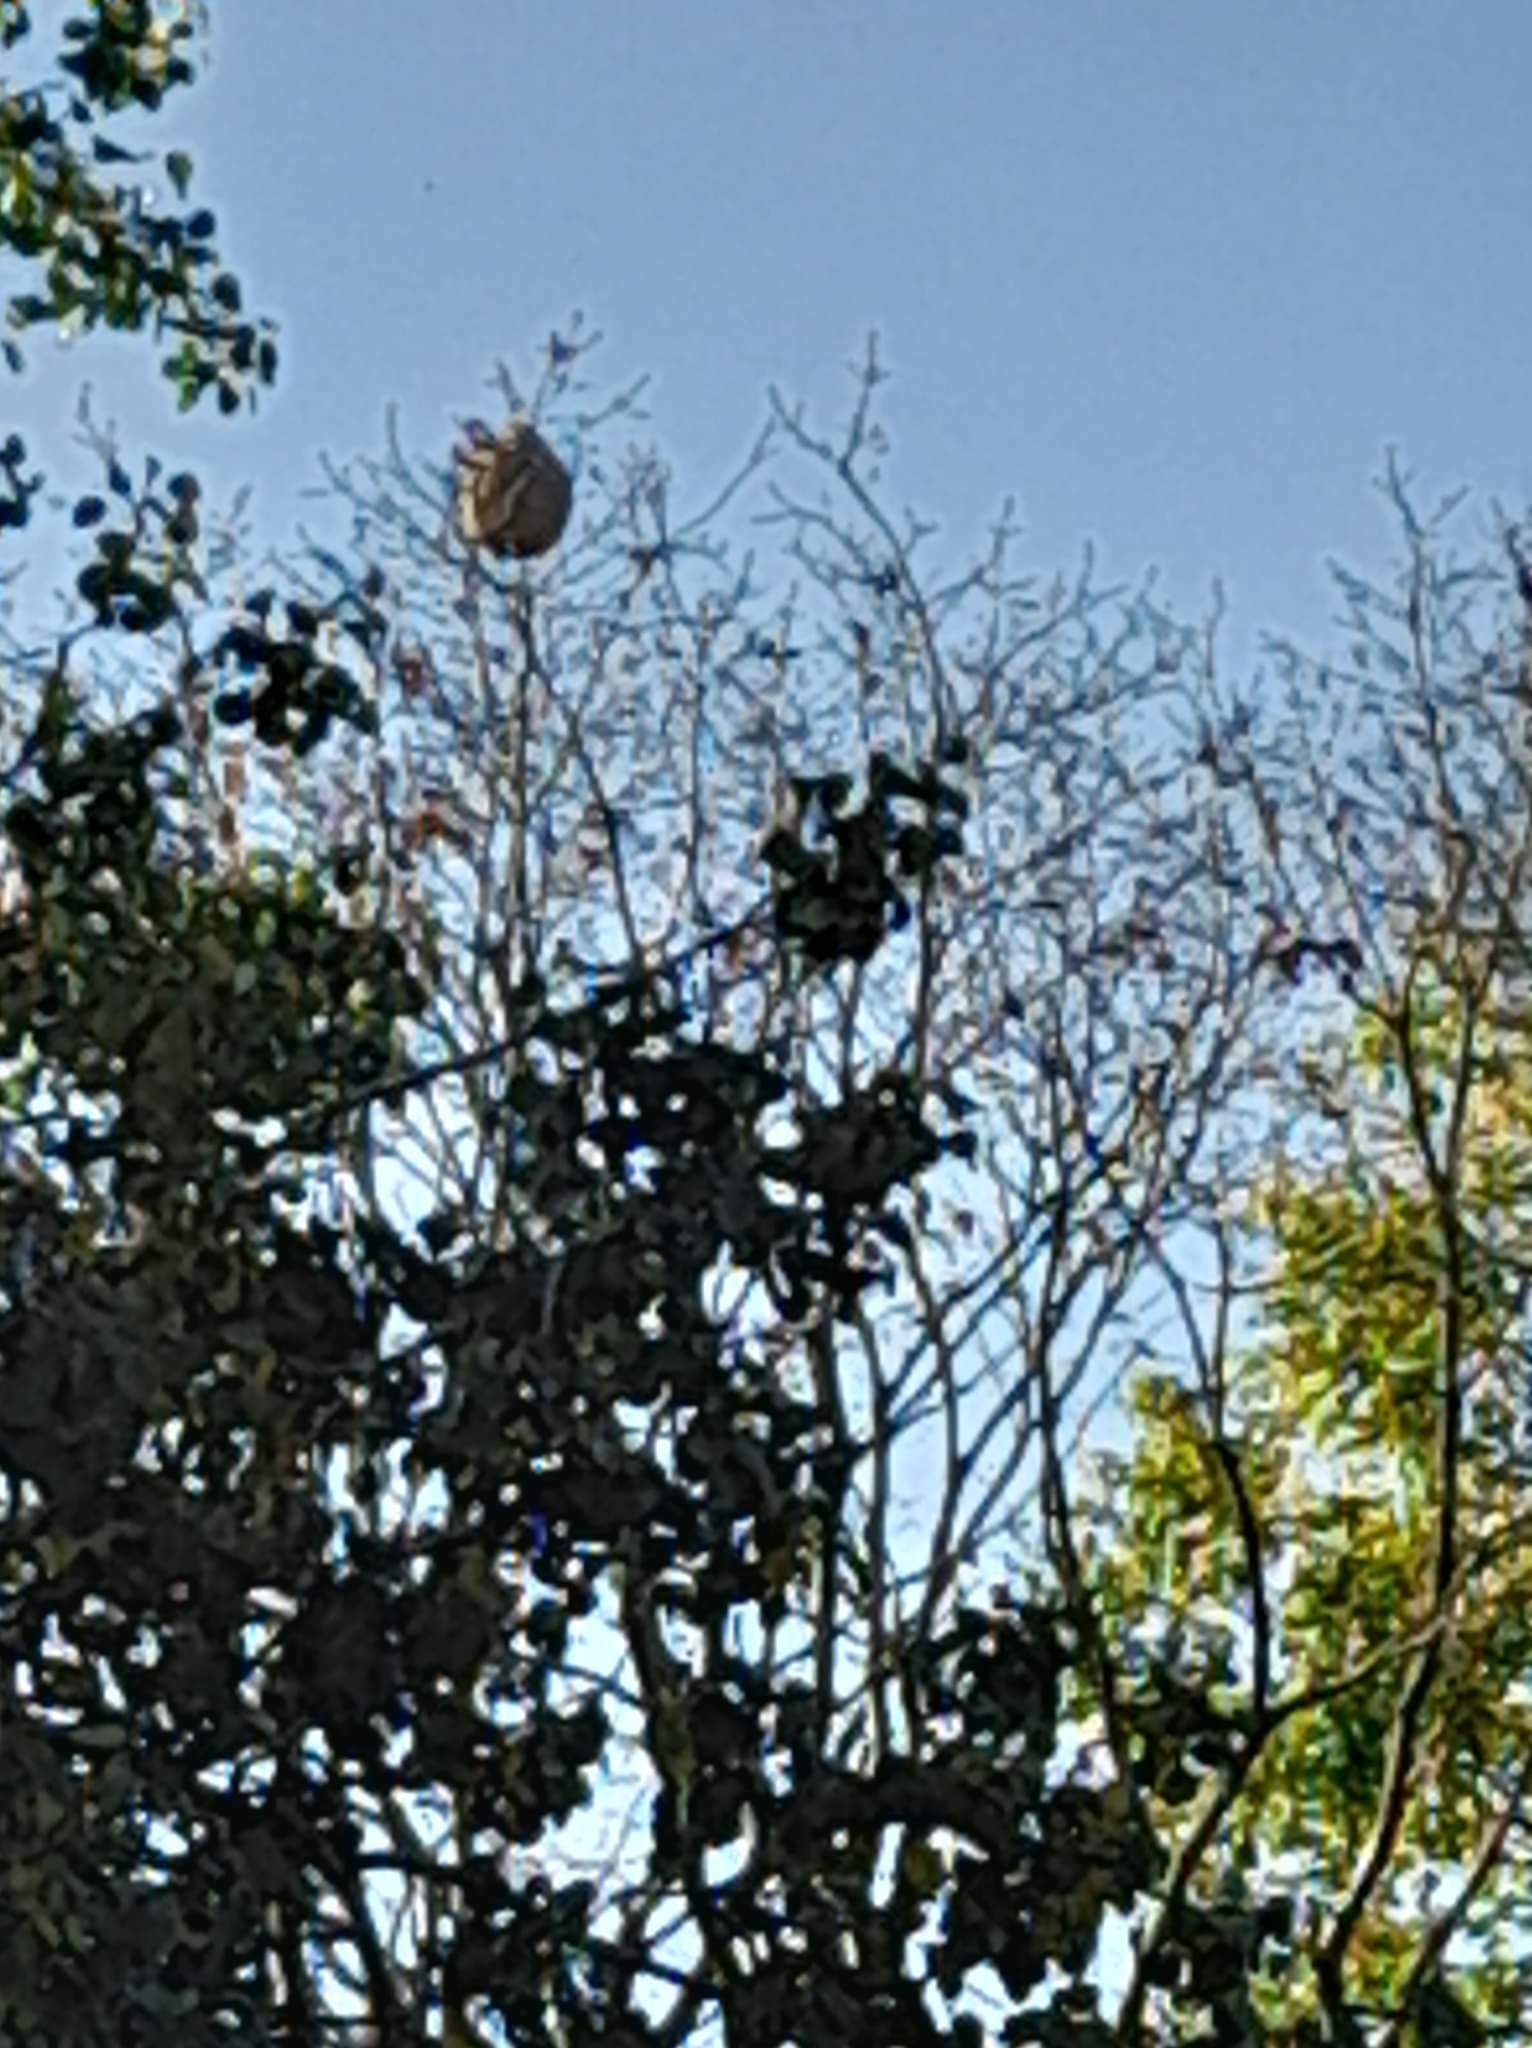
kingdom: Animalia
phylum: Arthropoda
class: Insecta
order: Hymenoptera
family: Vespidae
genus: Vespa
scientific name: Vespa velutina
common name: Asian hornet
